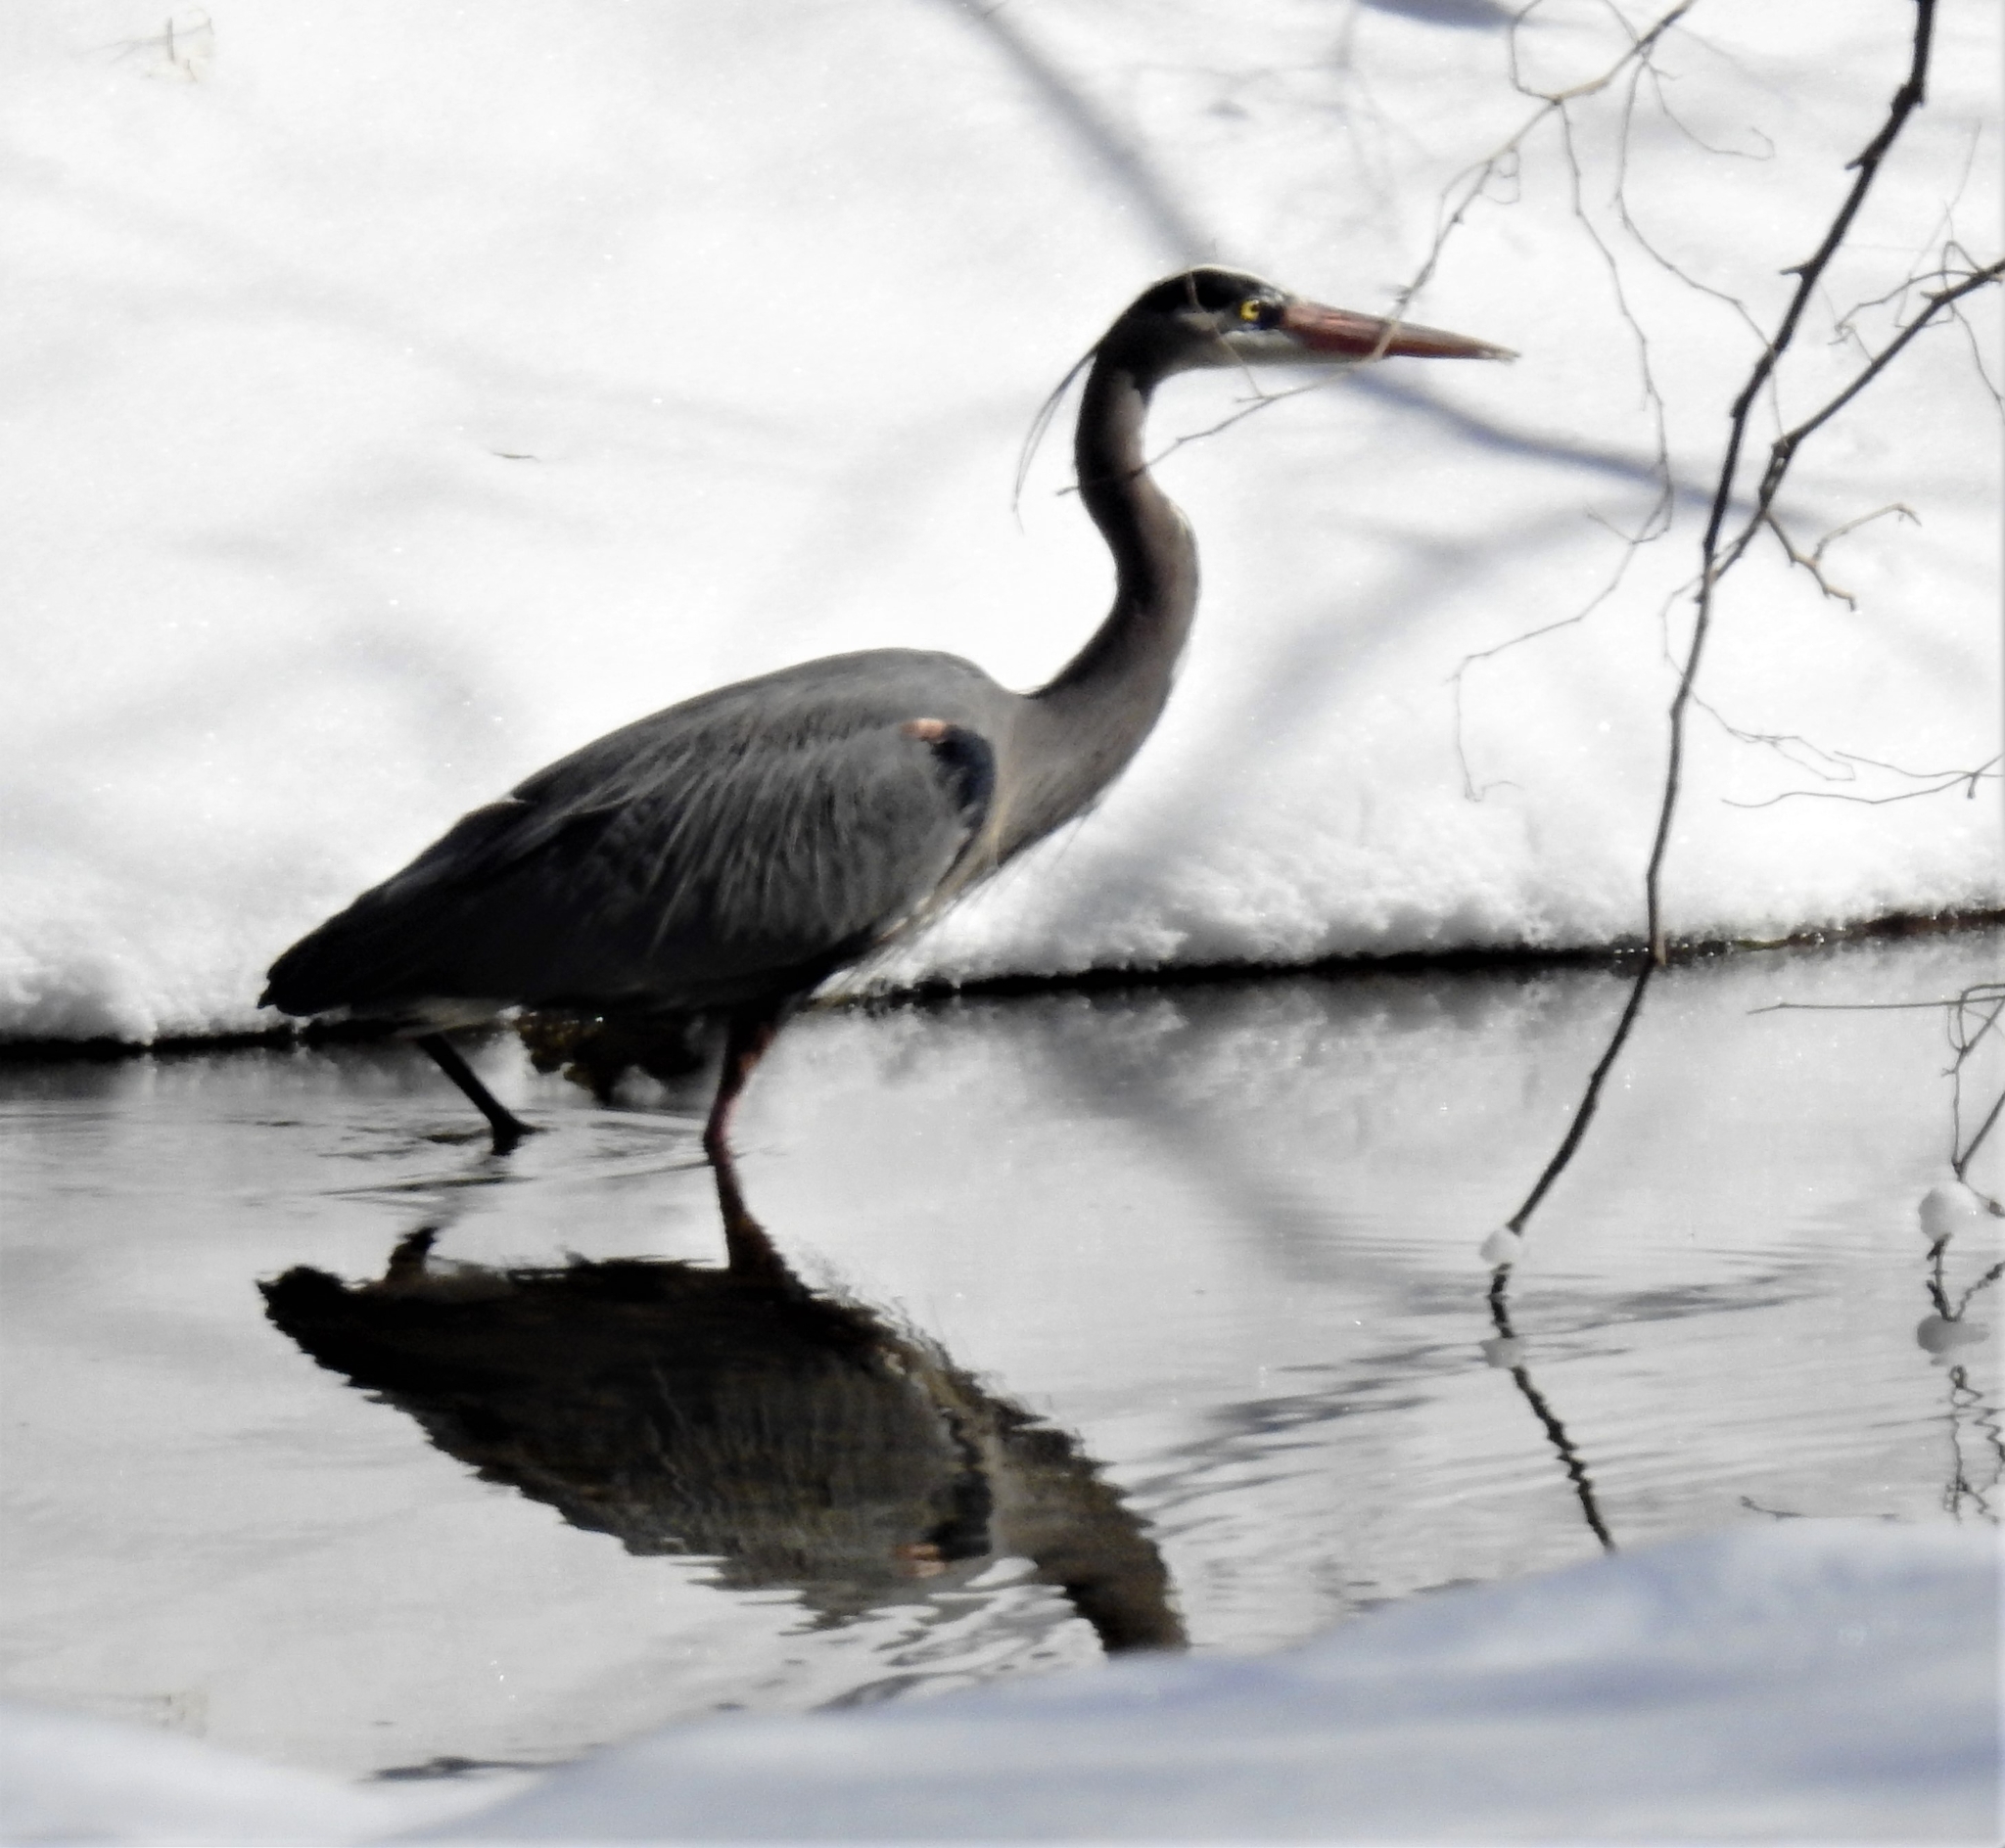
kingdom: Animalia
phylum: Chordata
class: Aves
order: Pelecaniformes
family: Ardeidae
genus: Ardea
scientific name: Ardea herodias
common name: Great blue heron
